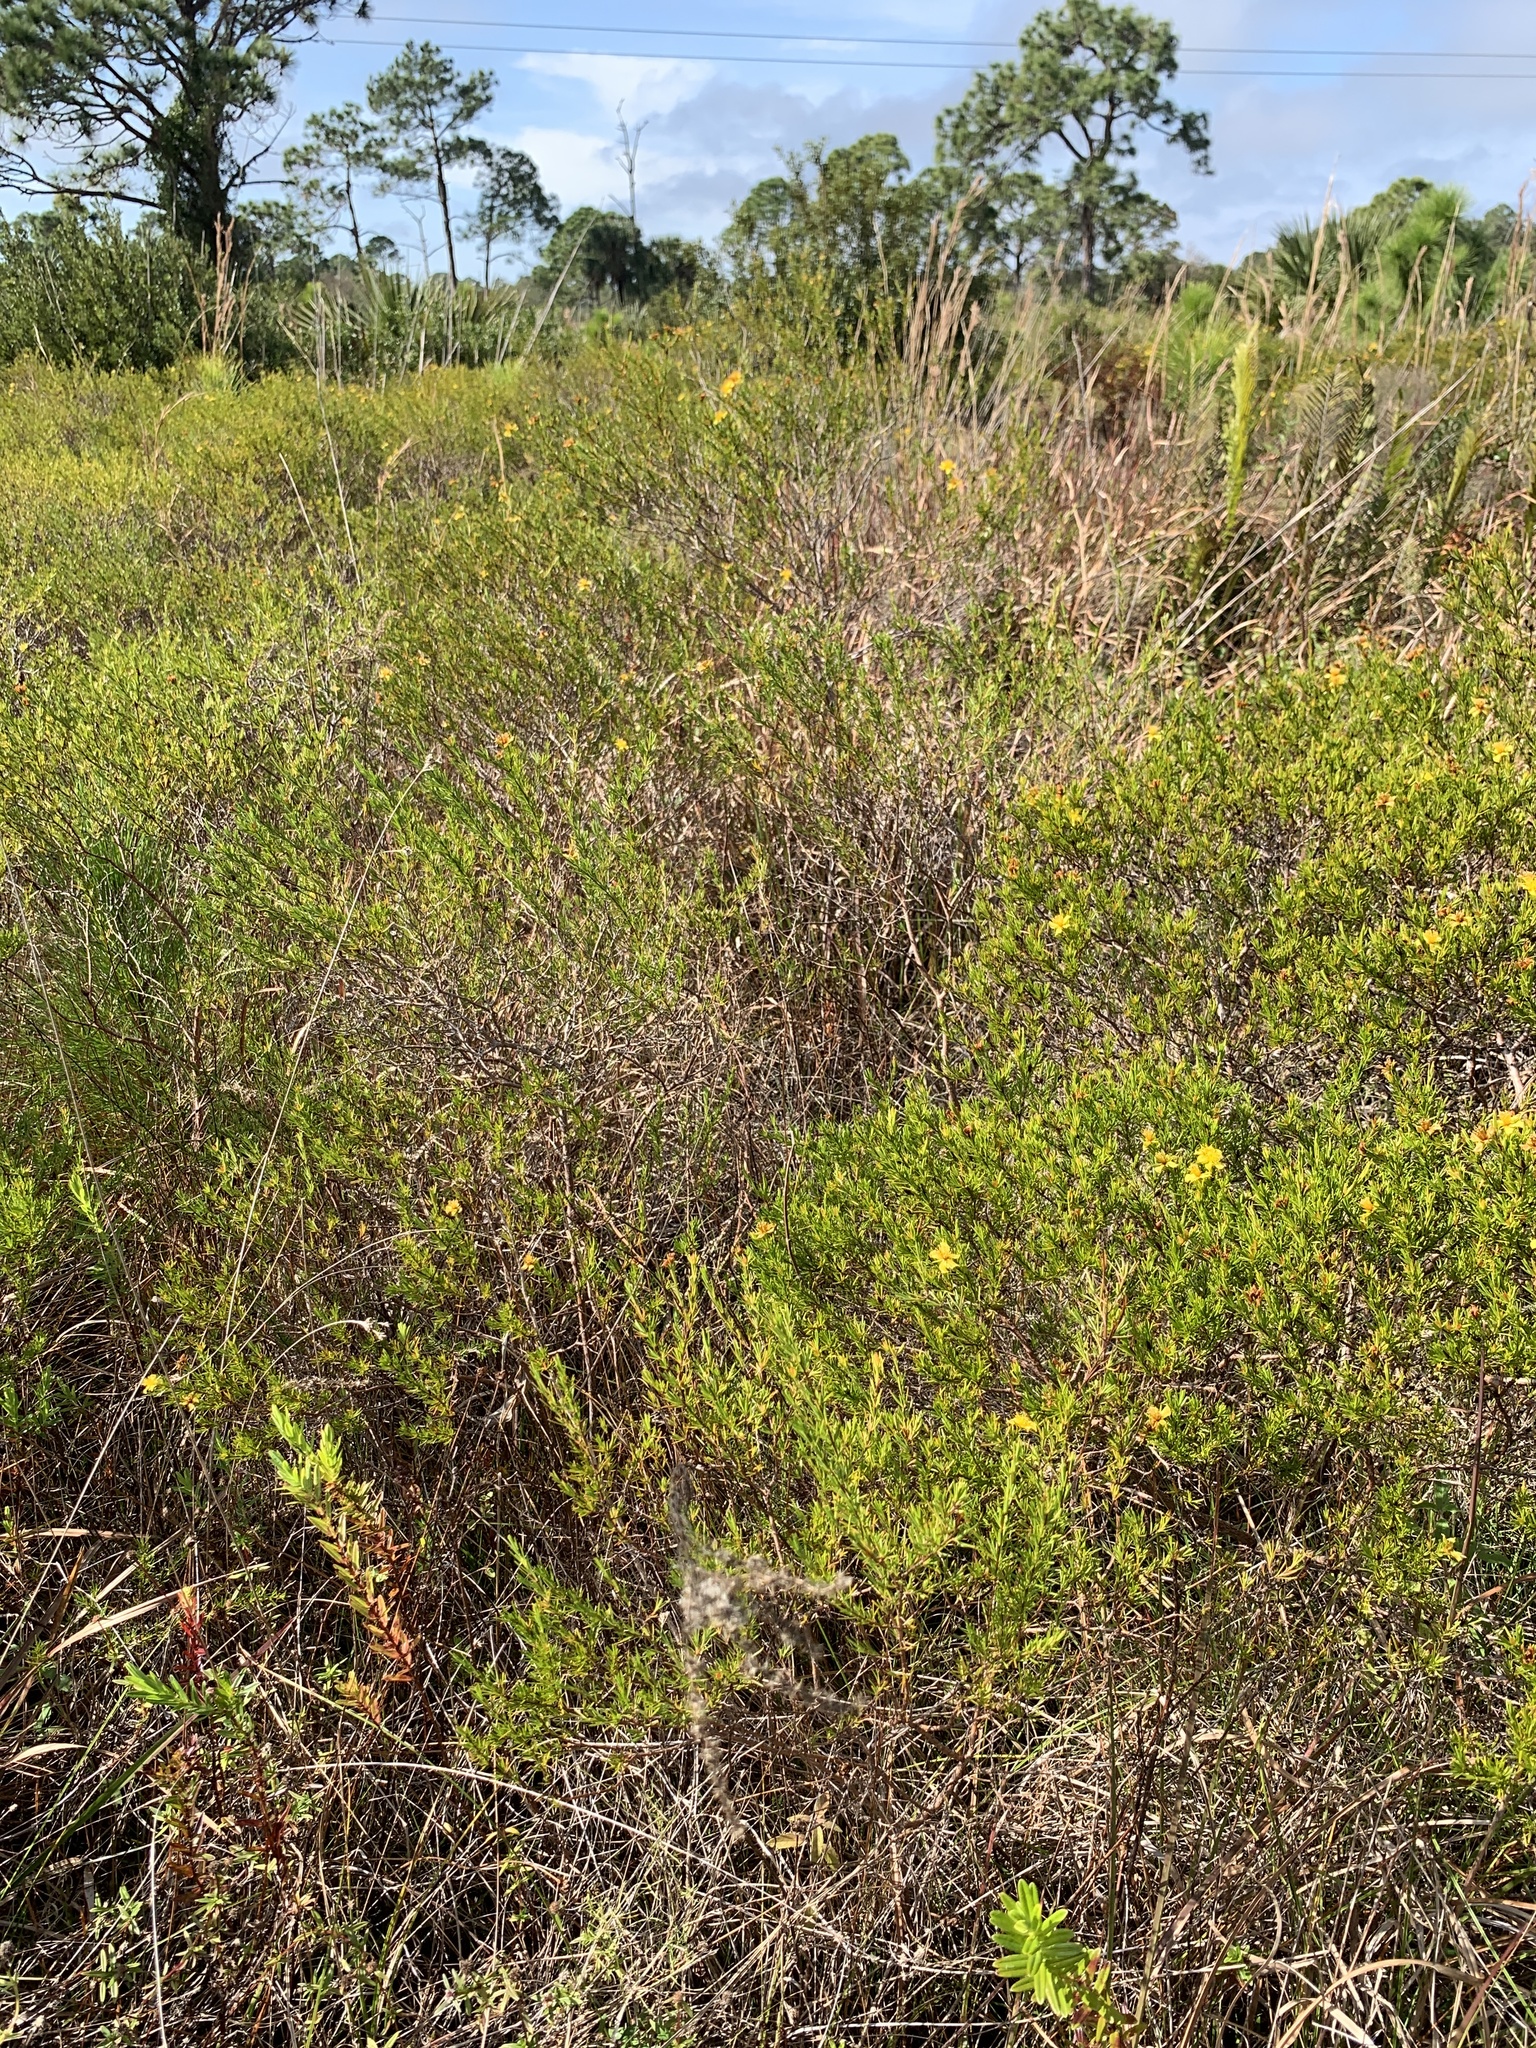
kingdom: Plantae
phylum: Tracheophyta
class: Magnoliopsida
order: Malpighiales
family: Hypericaceae
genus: Hypericum
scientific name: Hypericum fasciculatum
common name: Peelbark st. john's wort
